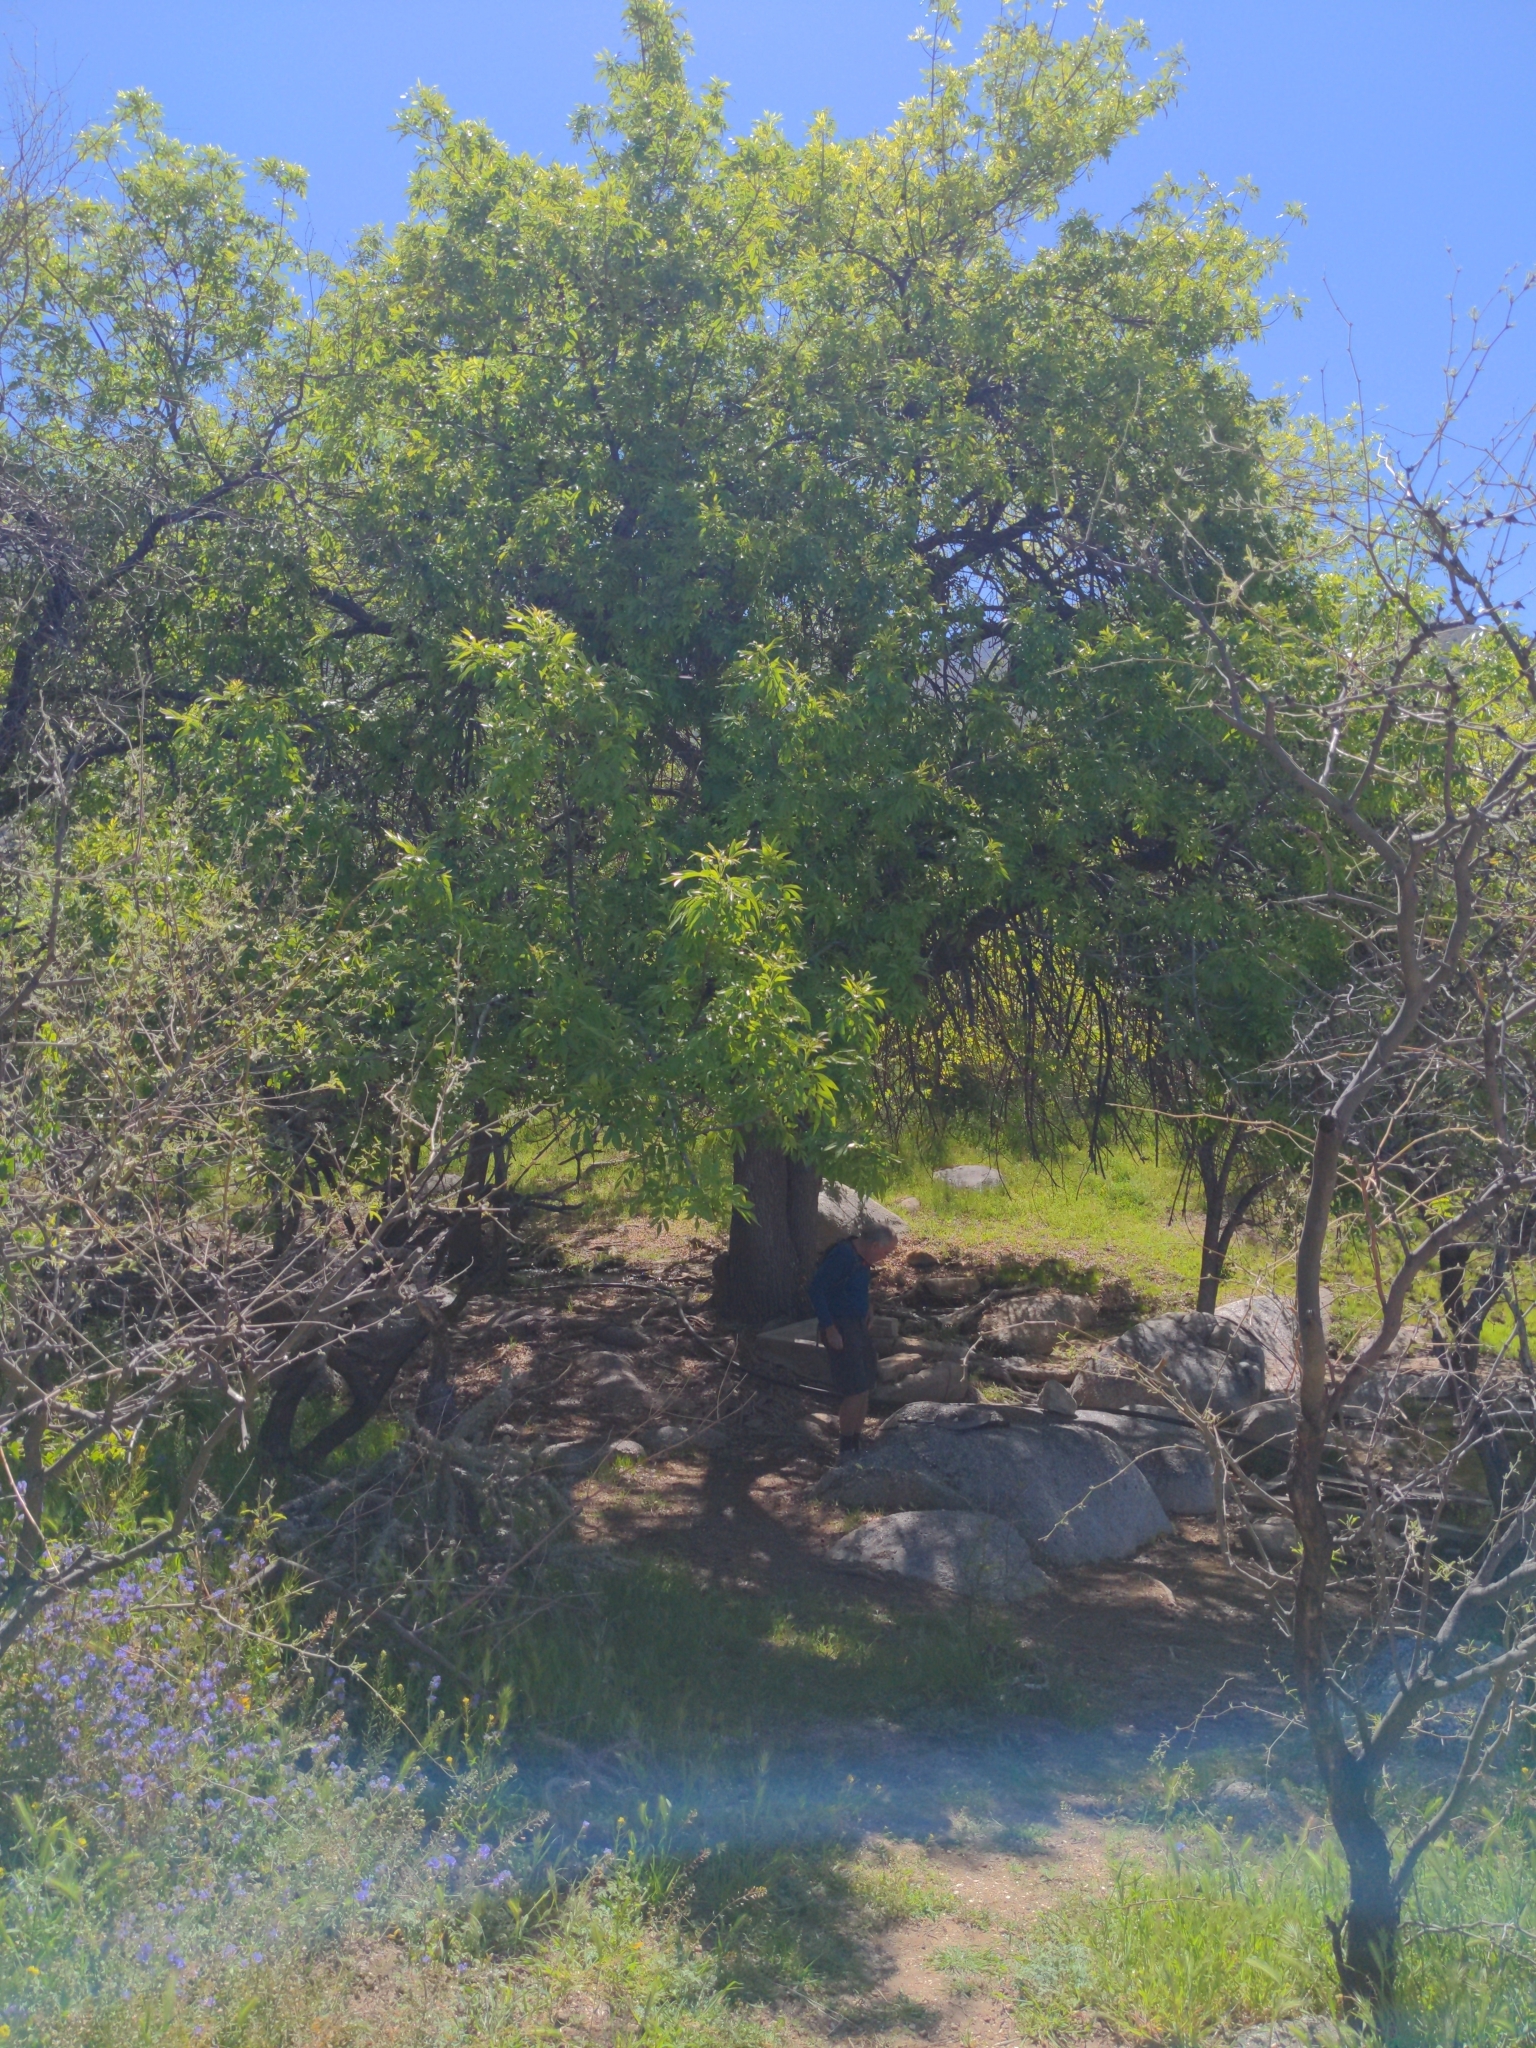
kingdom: Plantae
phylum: Tracheophyta
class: Magnoliopsida
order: Lamiales
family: Oleaceae
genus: Fraxinus
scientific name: Fraxinus velutina
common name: Arizon ash
